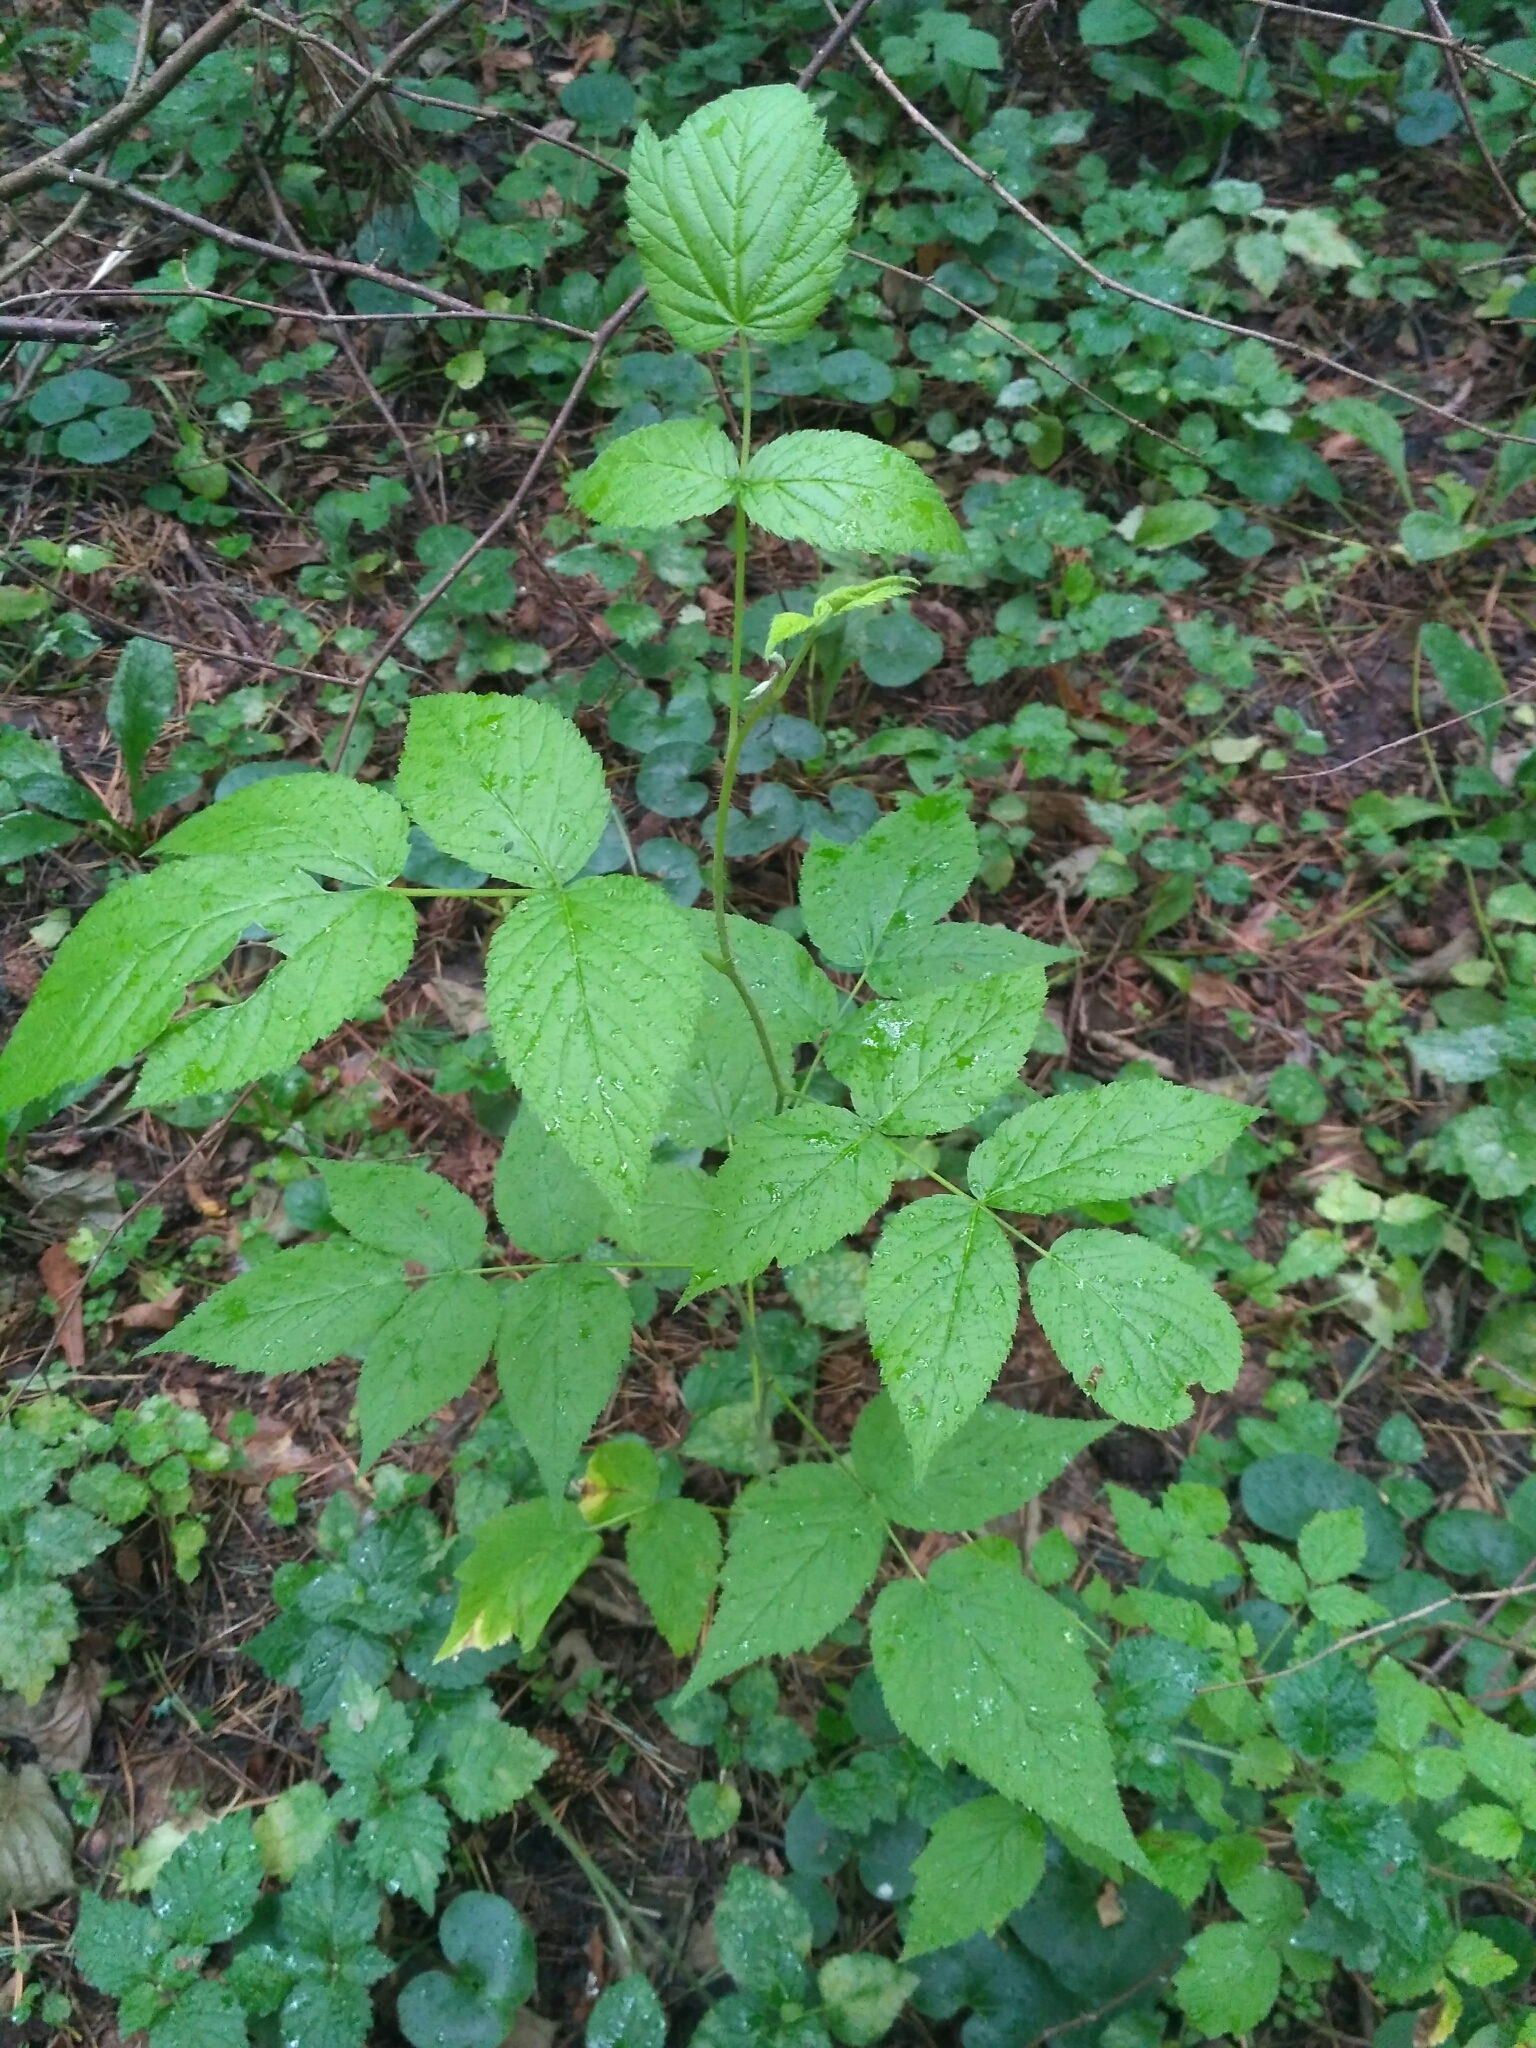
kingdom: Plantae
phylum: Tracheophyta
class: Magnoliopsida
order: Rosales
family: Rosaceae
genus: Rubus
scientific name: Rubus idaeus
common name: Raspberry
